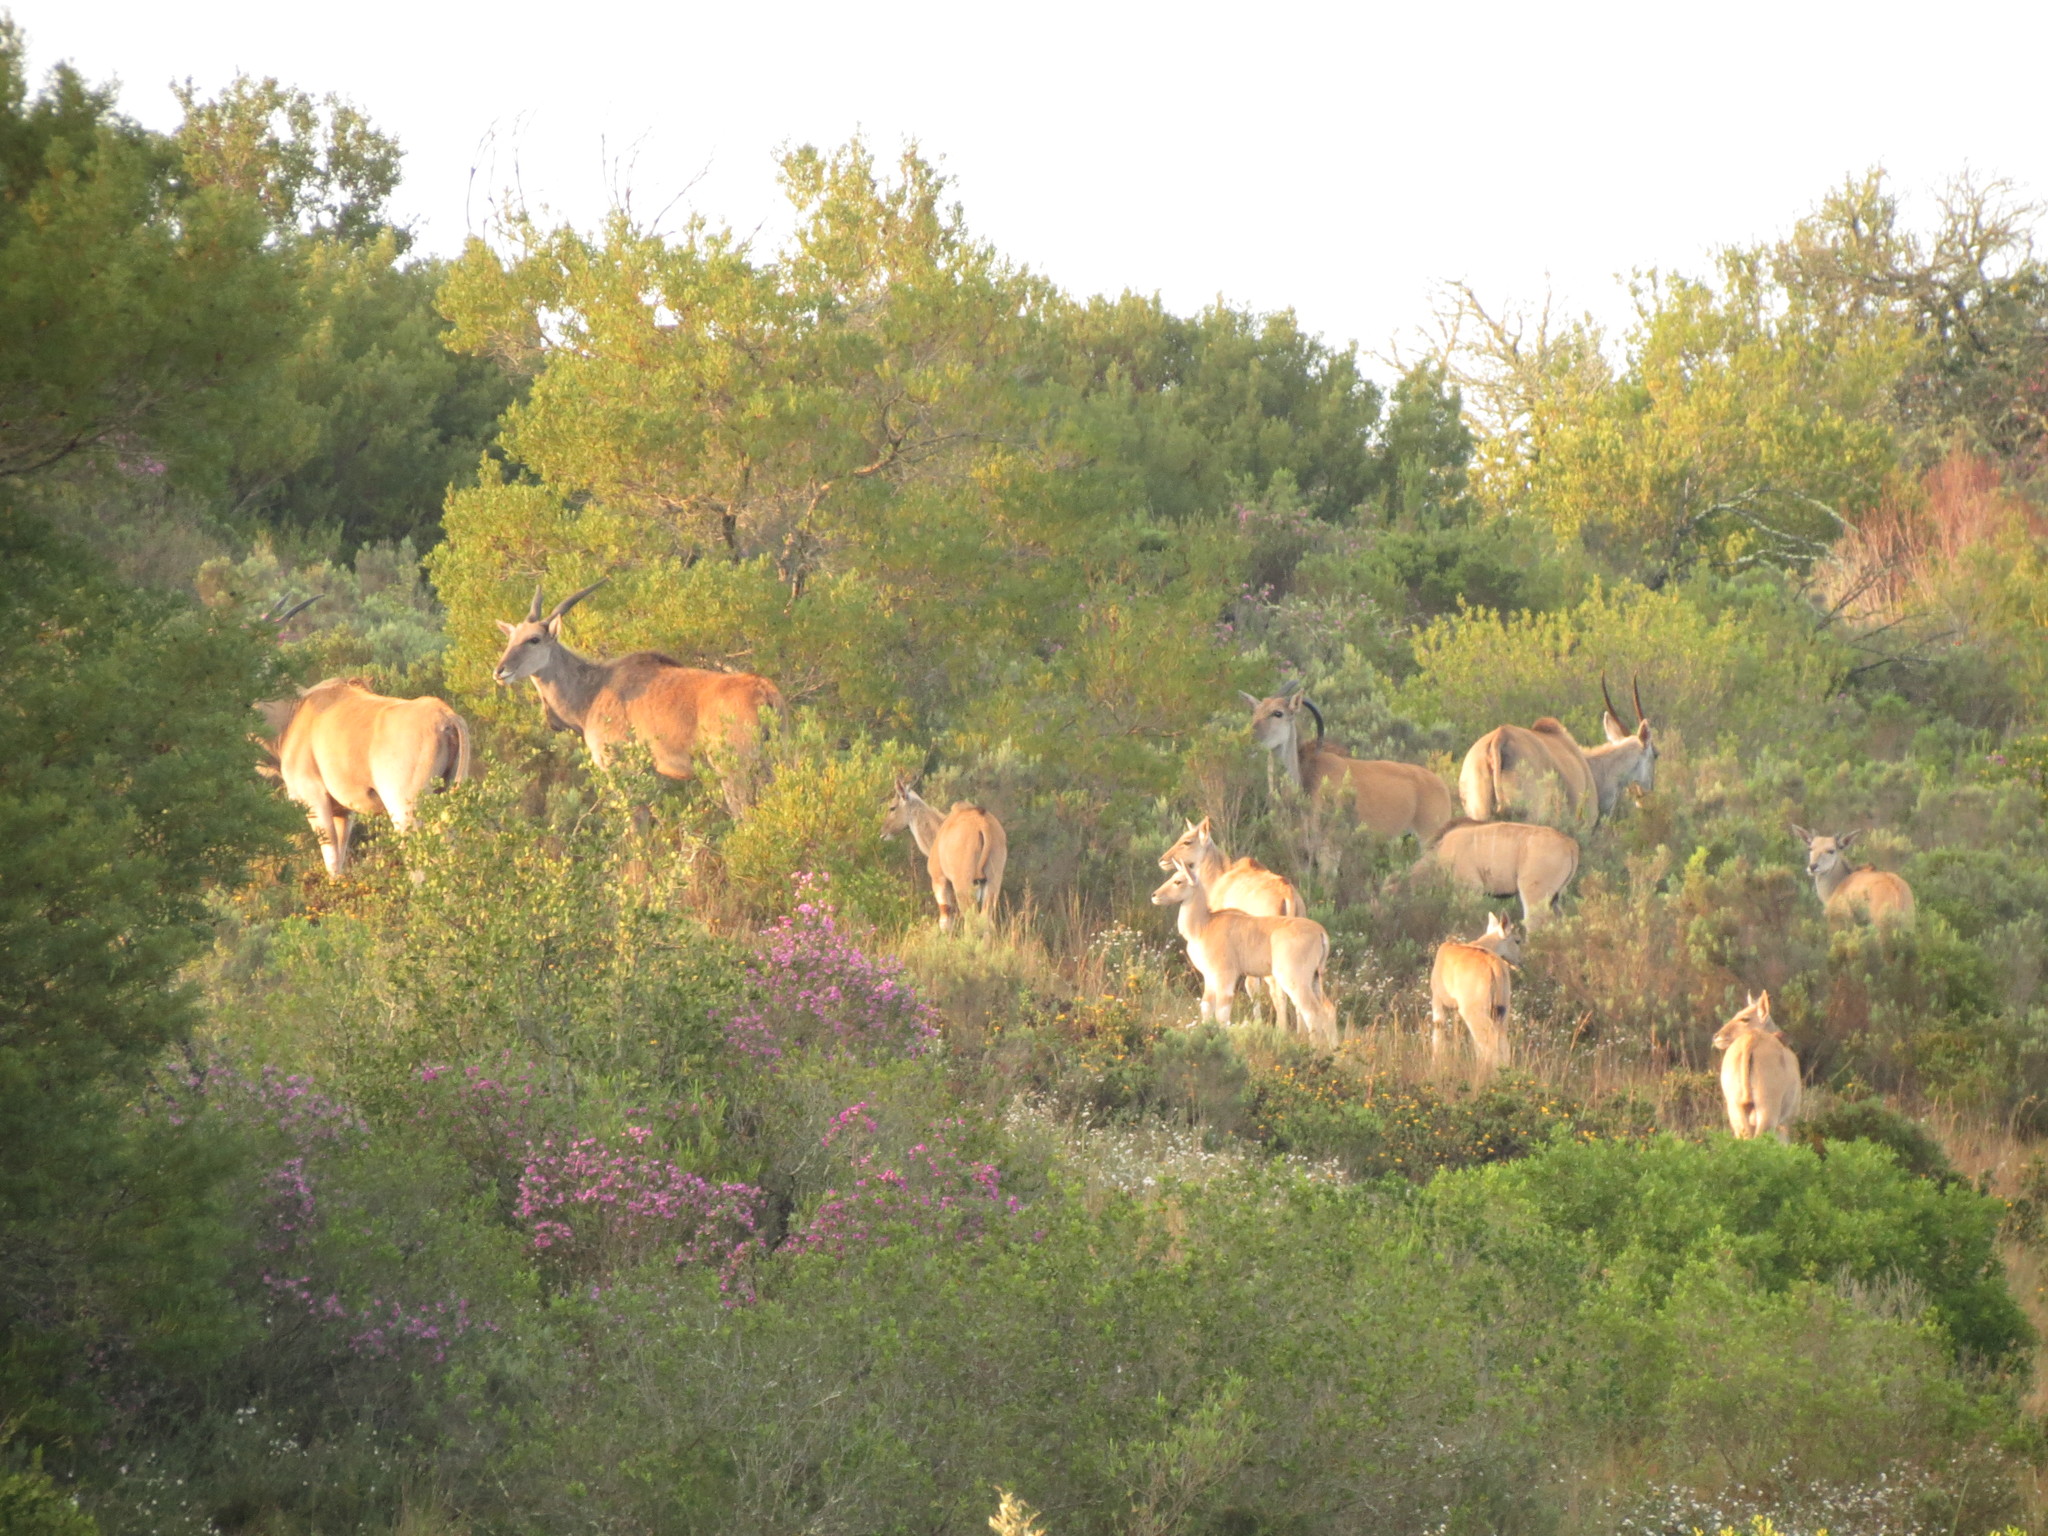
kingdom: Animalia
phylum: Chordata
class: Mammalia
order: Artiodactyla
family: Bovidae
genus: Taurotragus
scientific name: Taurotragus oryx
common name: Common eland
